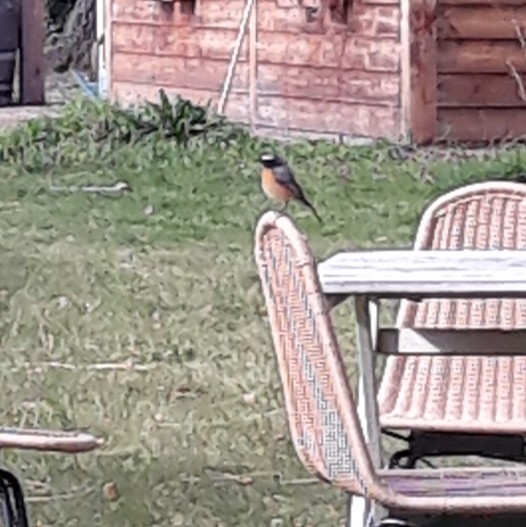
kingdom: Animalia
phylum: Chordata
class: Aves
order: Passeriformes
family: Muscicapidae
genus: Phoenicurus
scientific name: Phoenicurus phoenicurus
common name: Common redstart
